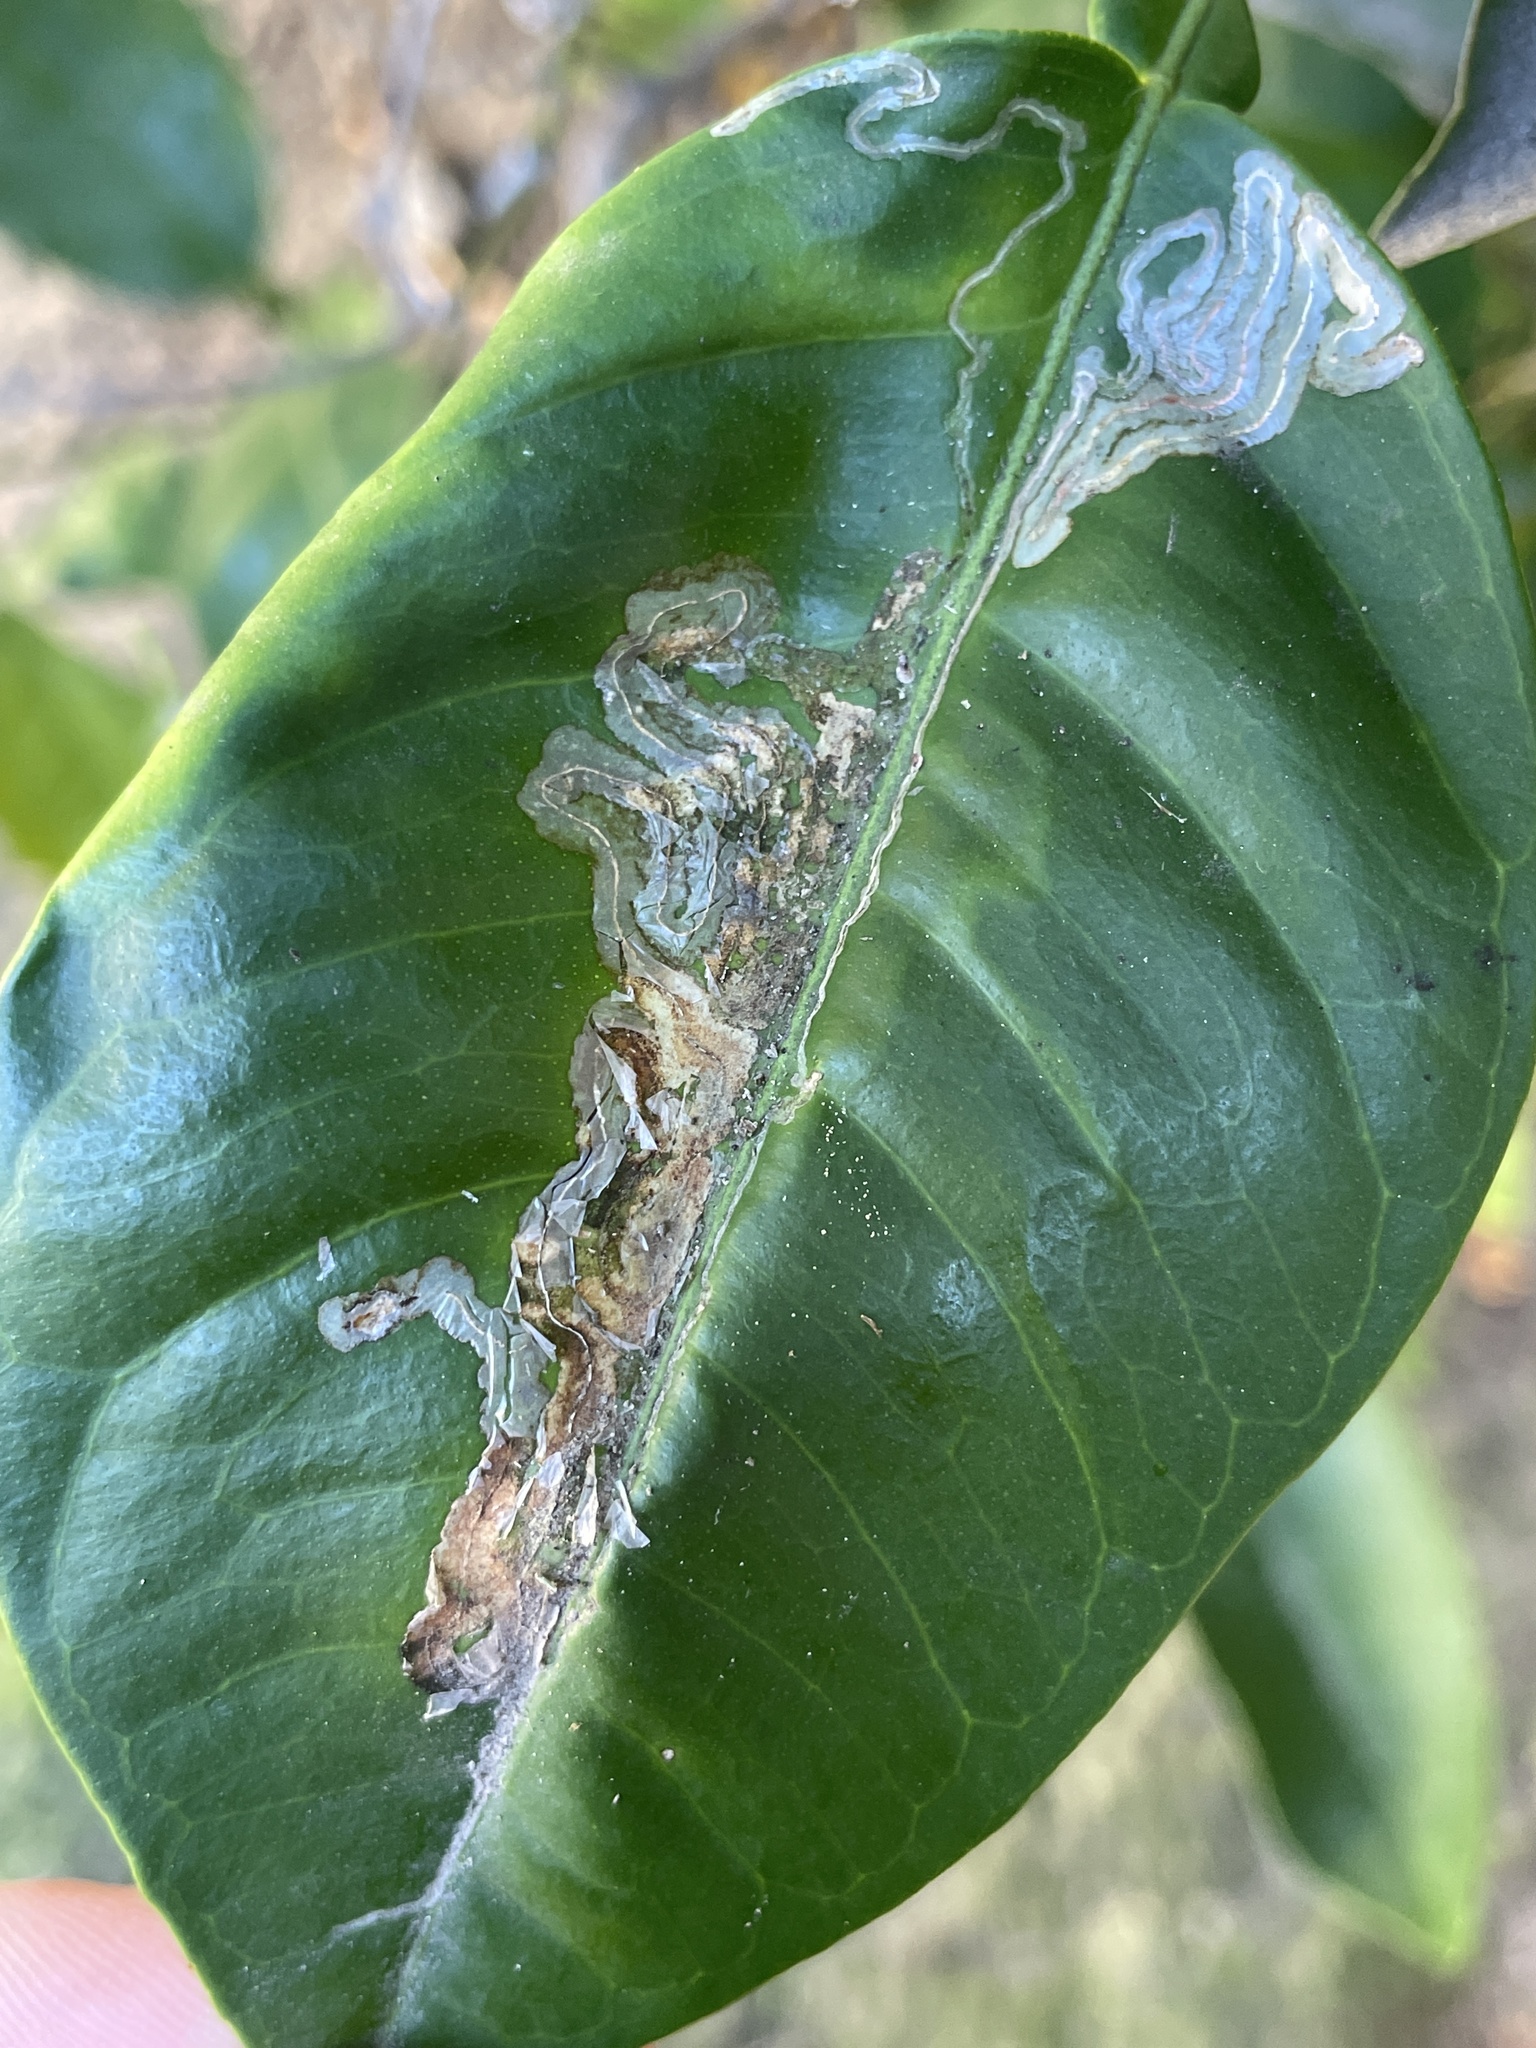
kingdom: Animalia
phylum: Arthropoda
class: Insecta
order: Lepidoptera
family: Gracillariidae
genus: Phyllocnistis
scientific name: Phyllocnistis citrella
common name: Citrus leafminer
